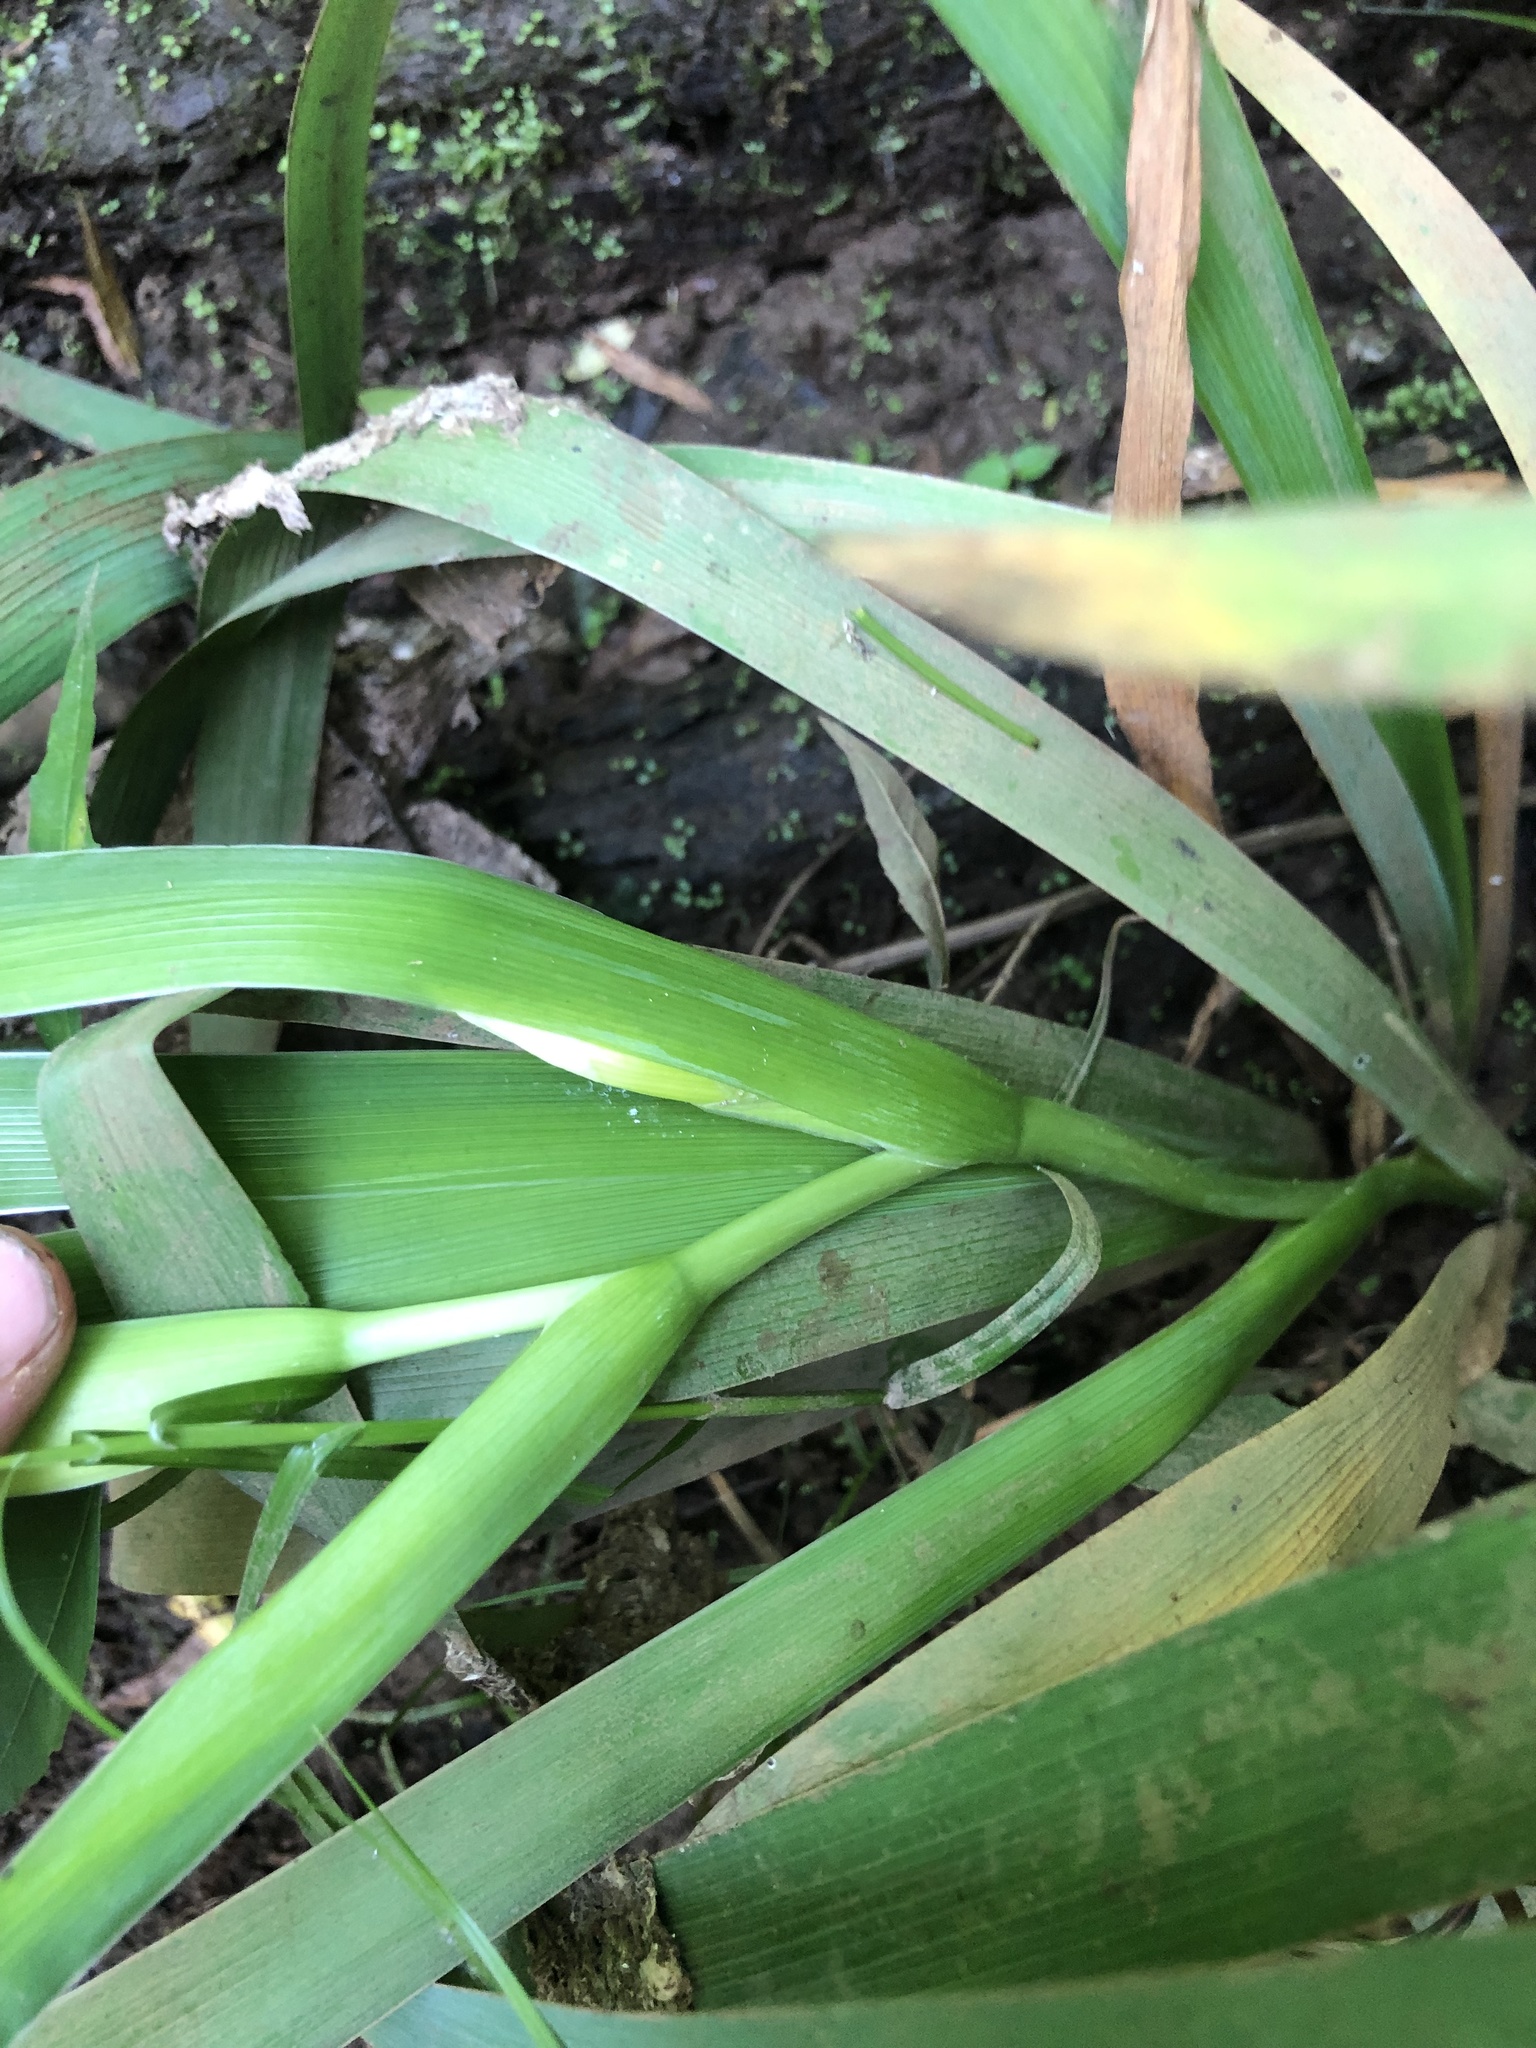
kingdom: Plantae
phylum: Tracheophyta
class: Liliopsida
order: Asparagales
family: Iridaceae
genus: Iris
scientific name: Iris brevicaulis
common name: Zigzag iris
